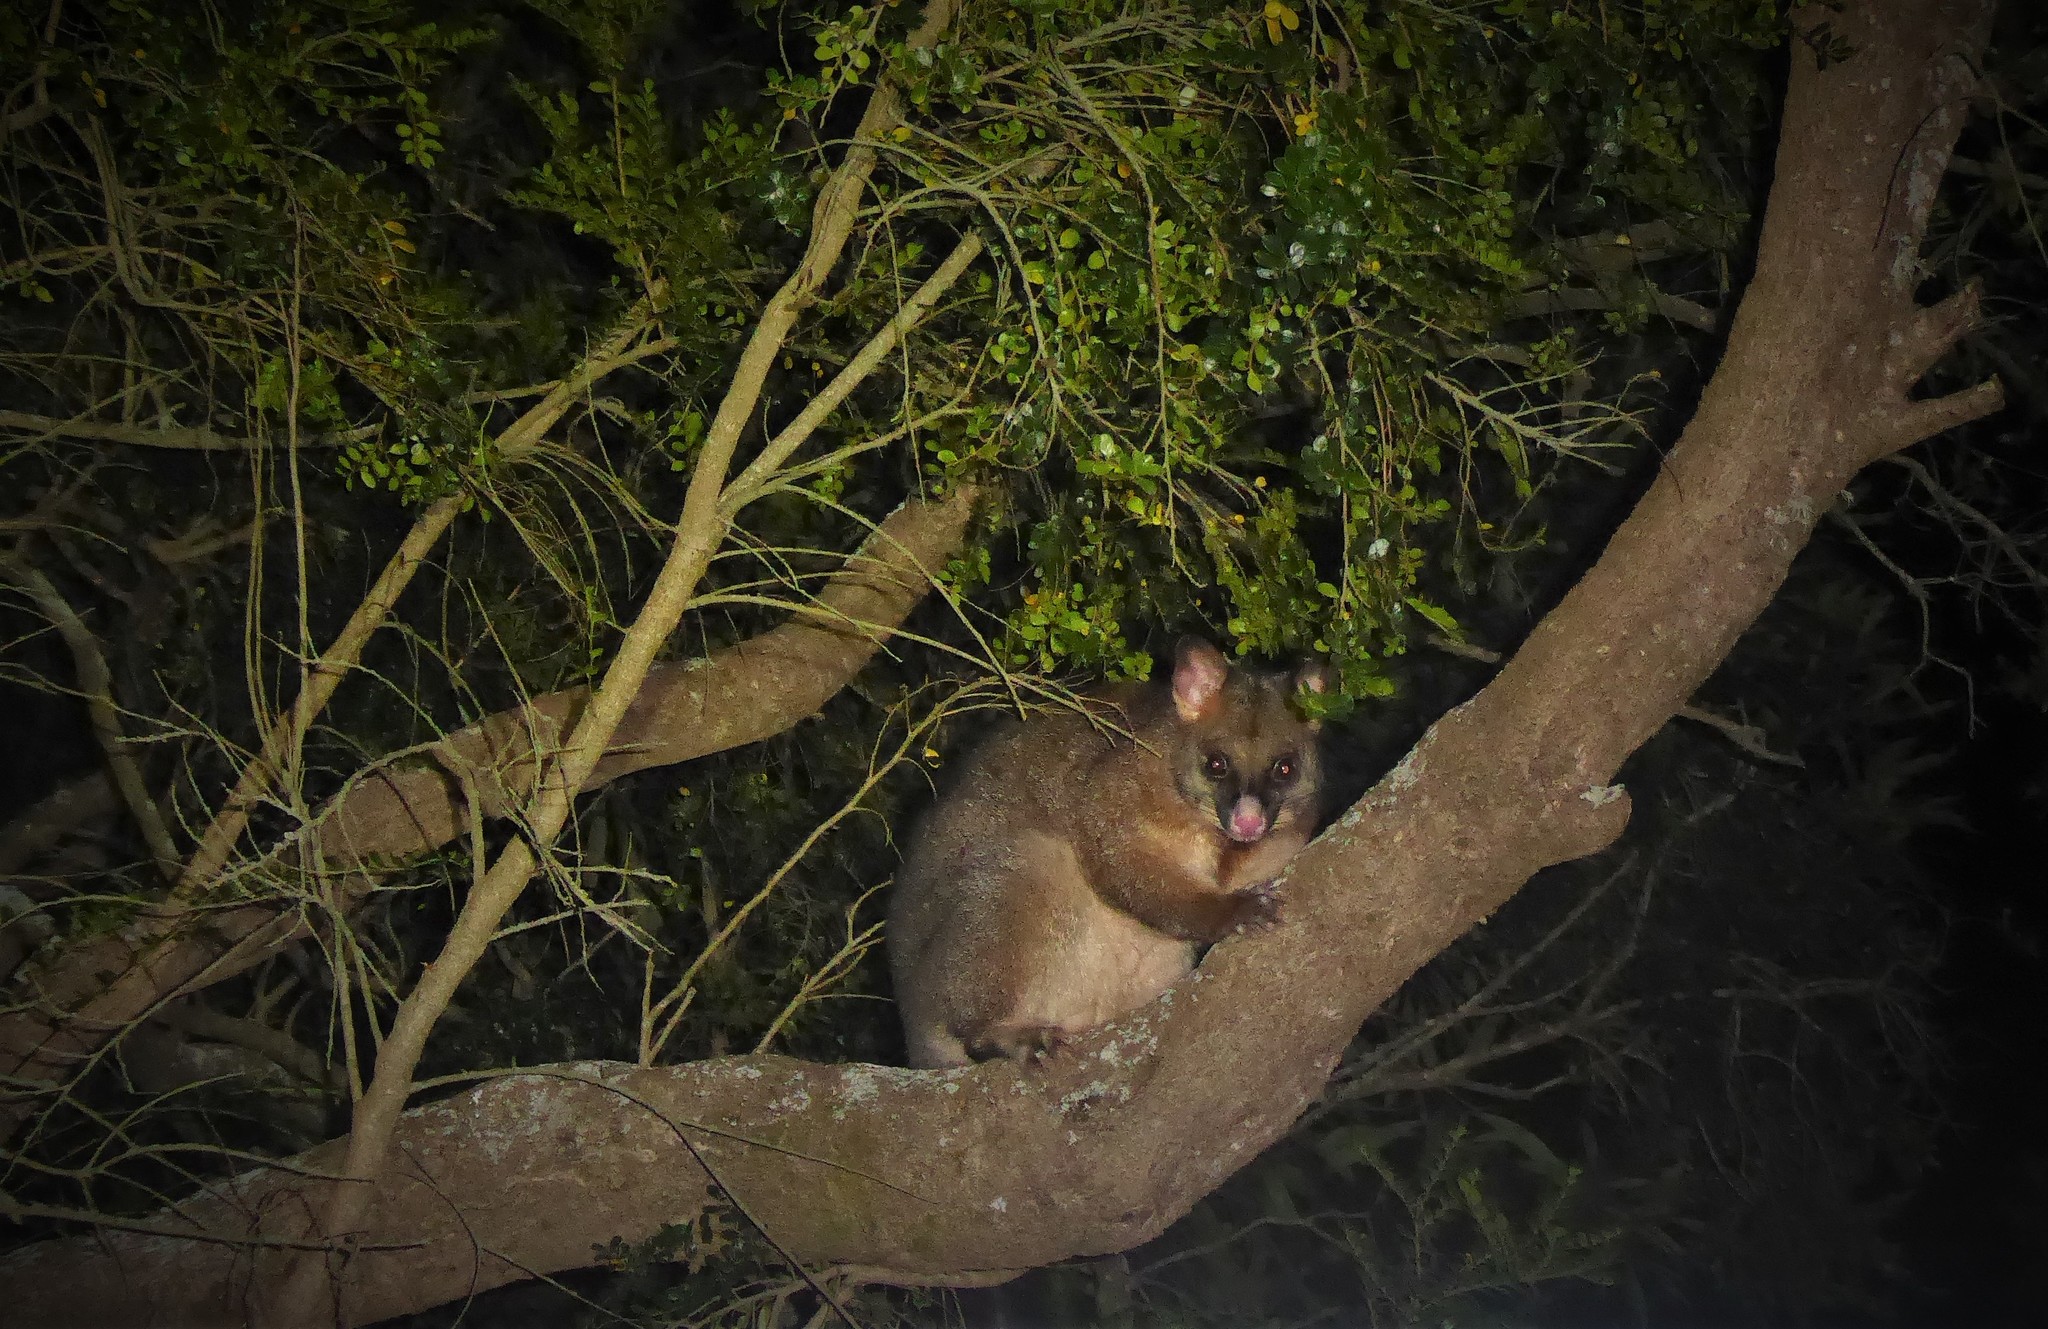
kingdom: Animalia
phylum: Chordata
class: Mammalia
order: Diprotodontia
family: Phalangeridae
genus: Trichosurus
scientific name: Trichosurus vulpecula
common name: Common brushtail
